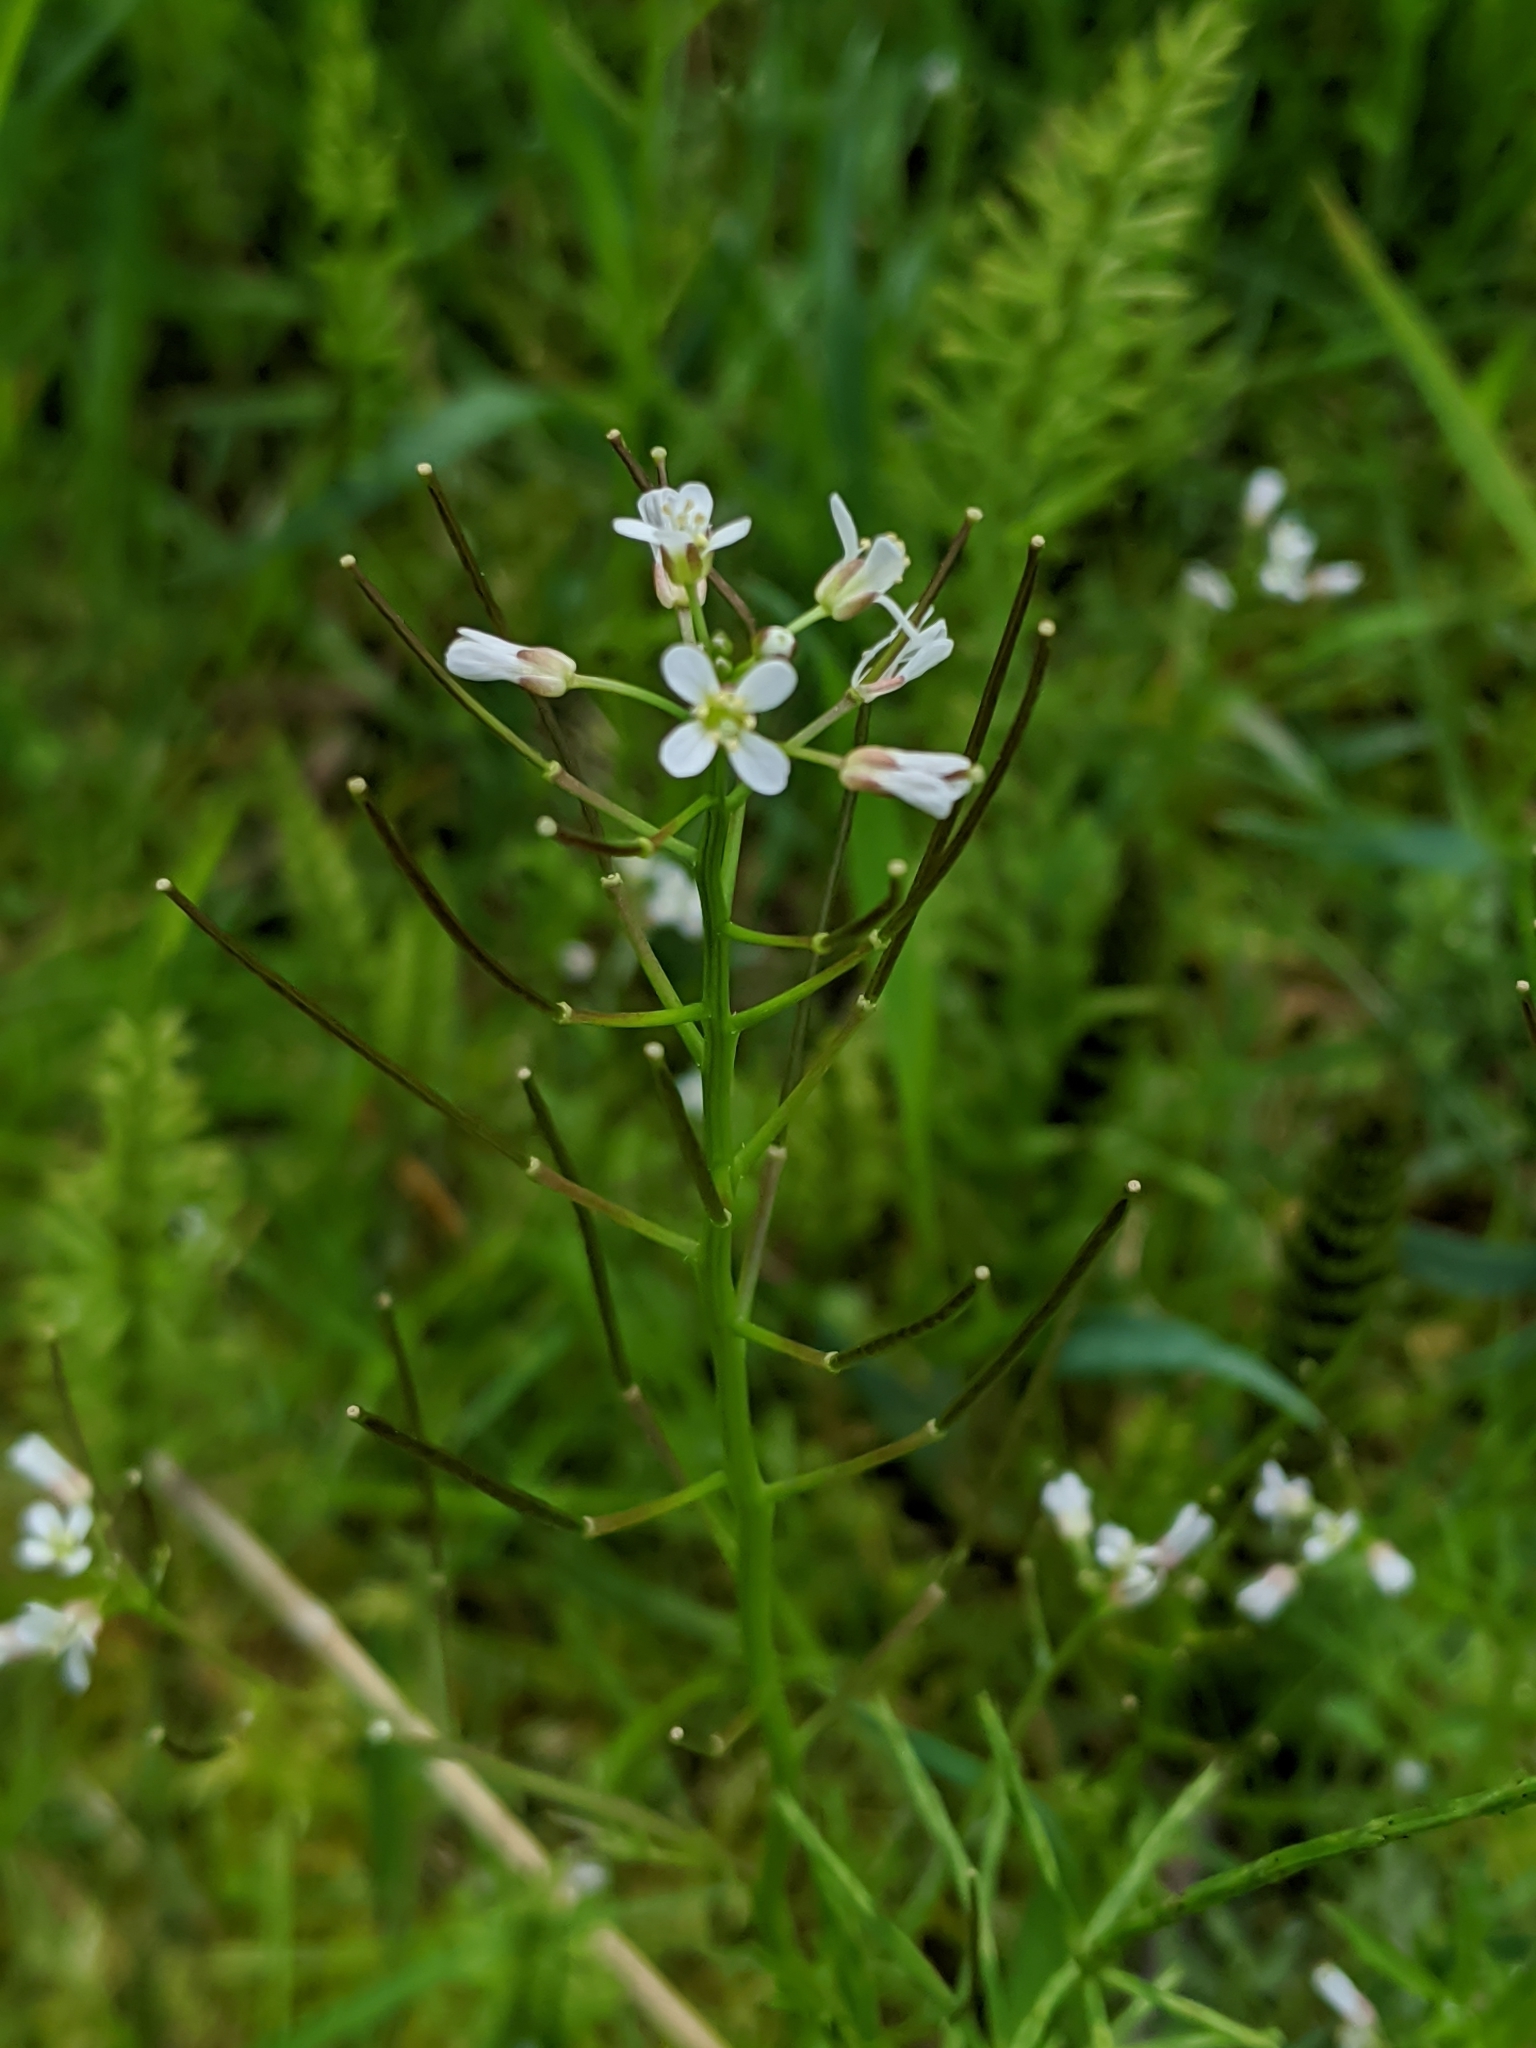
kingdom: Plantae
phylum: Tracheophyta
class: Magnoliopsida
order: Brassicales
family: Brassicaceae
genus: Cardamine
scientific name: Cardamine flexuosa
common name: Woodland bittercress
